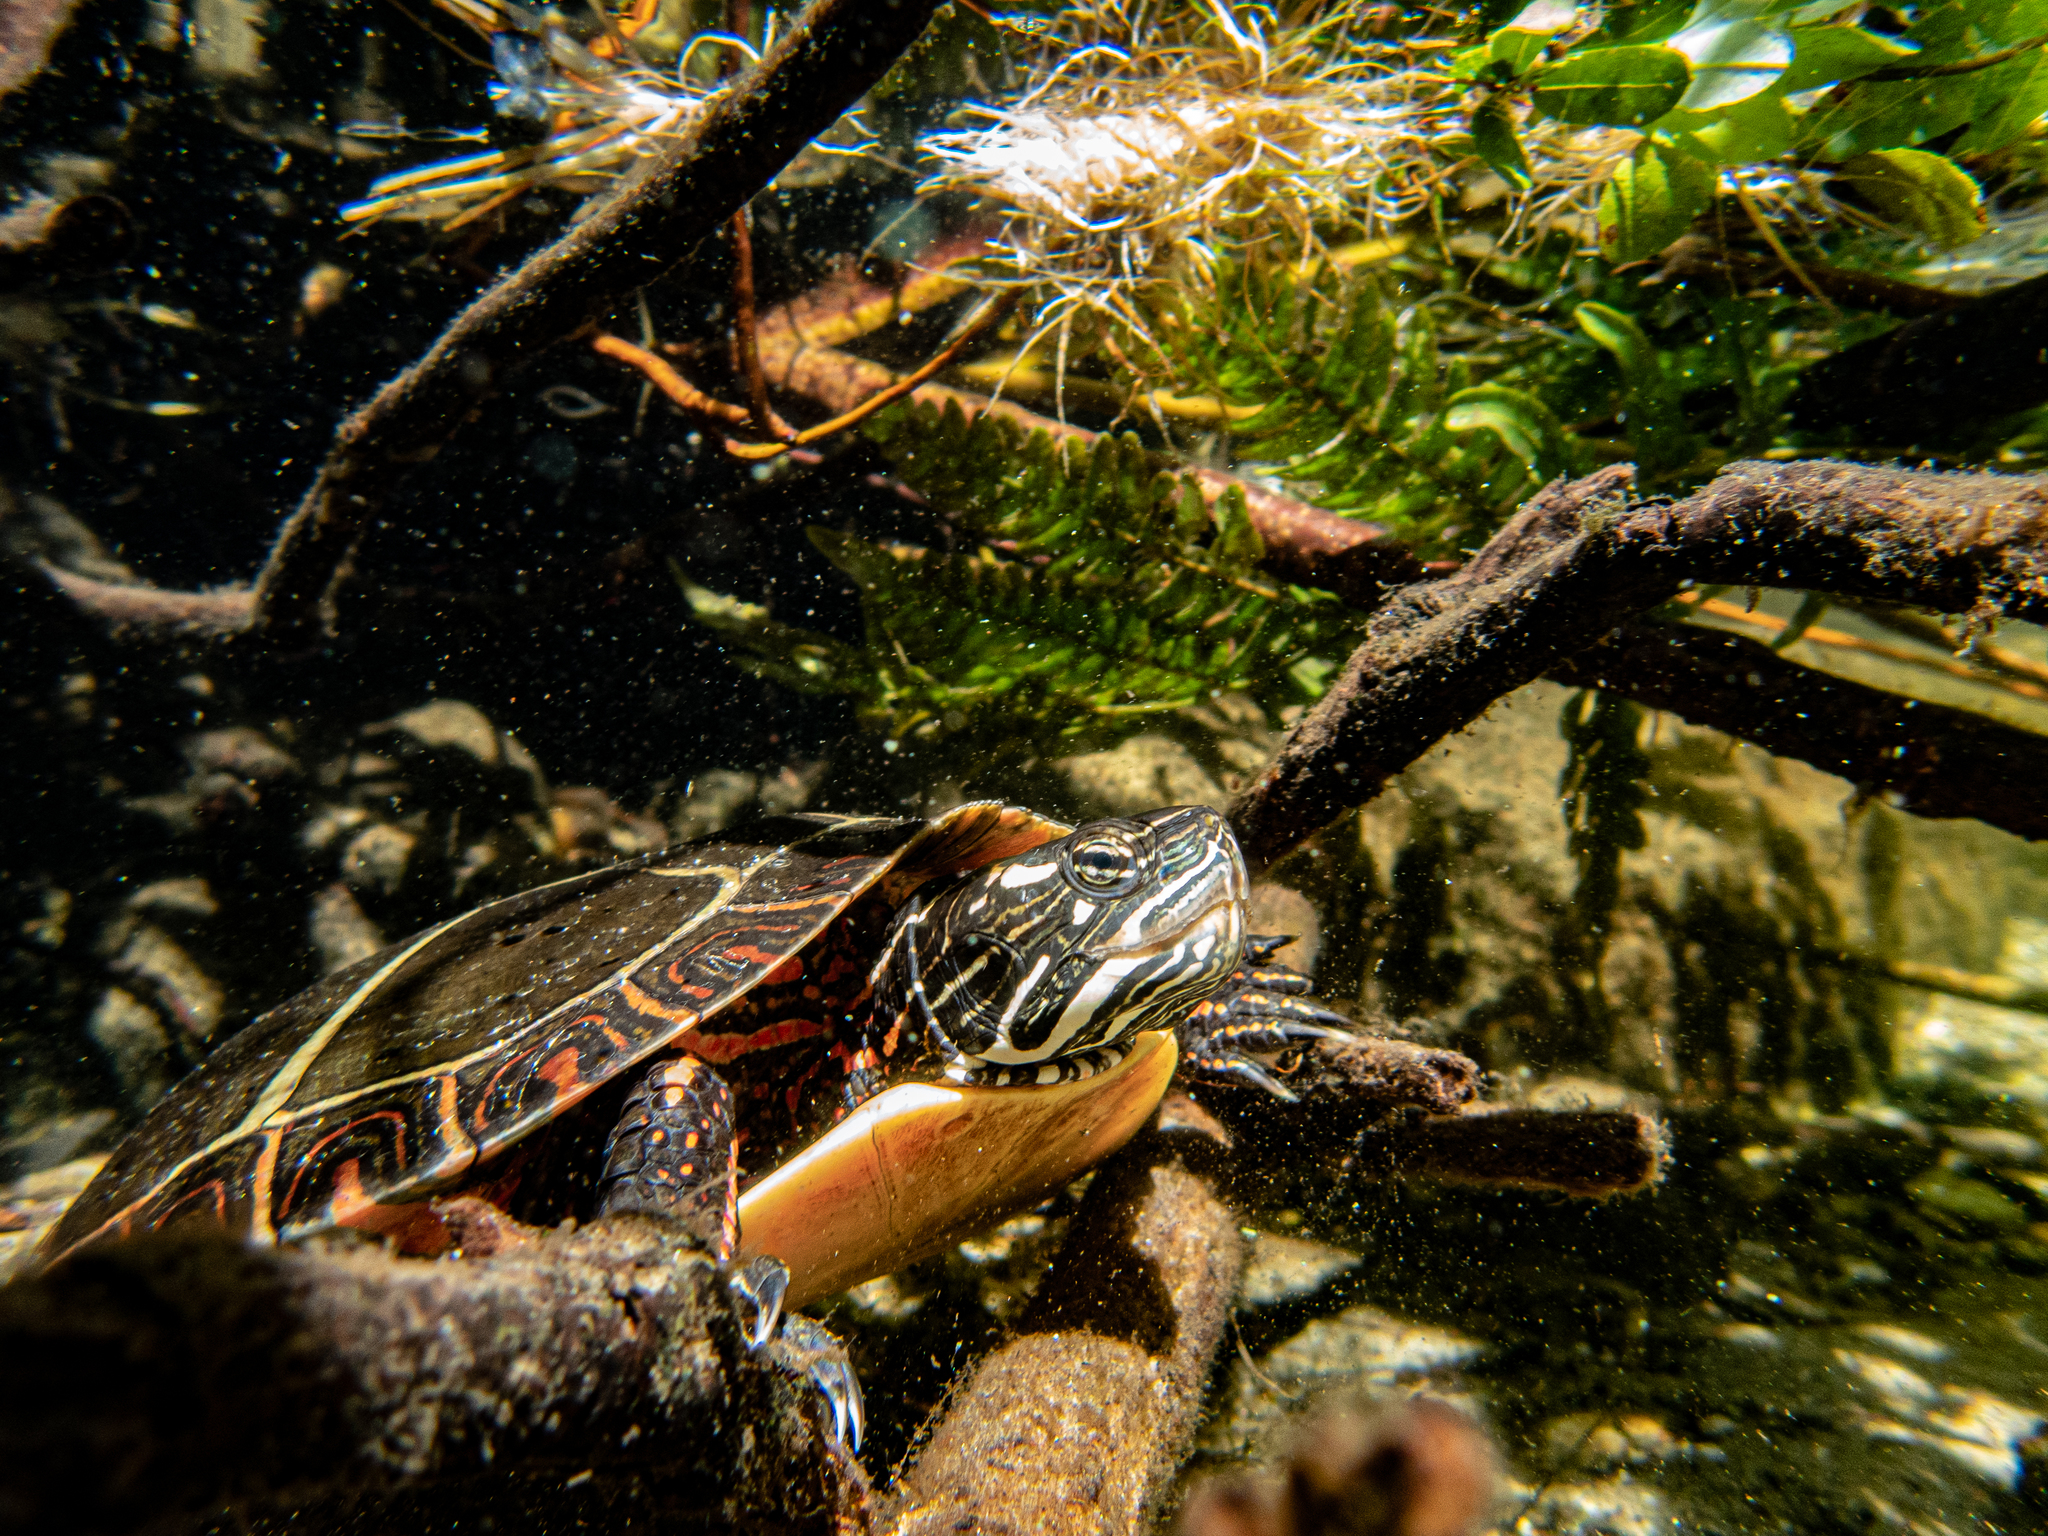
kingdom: Animalia
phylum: Chordata
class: Testudines
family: Emydidae
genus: Chrysemys
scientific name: Chrysemys picta
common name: Painted turtle
